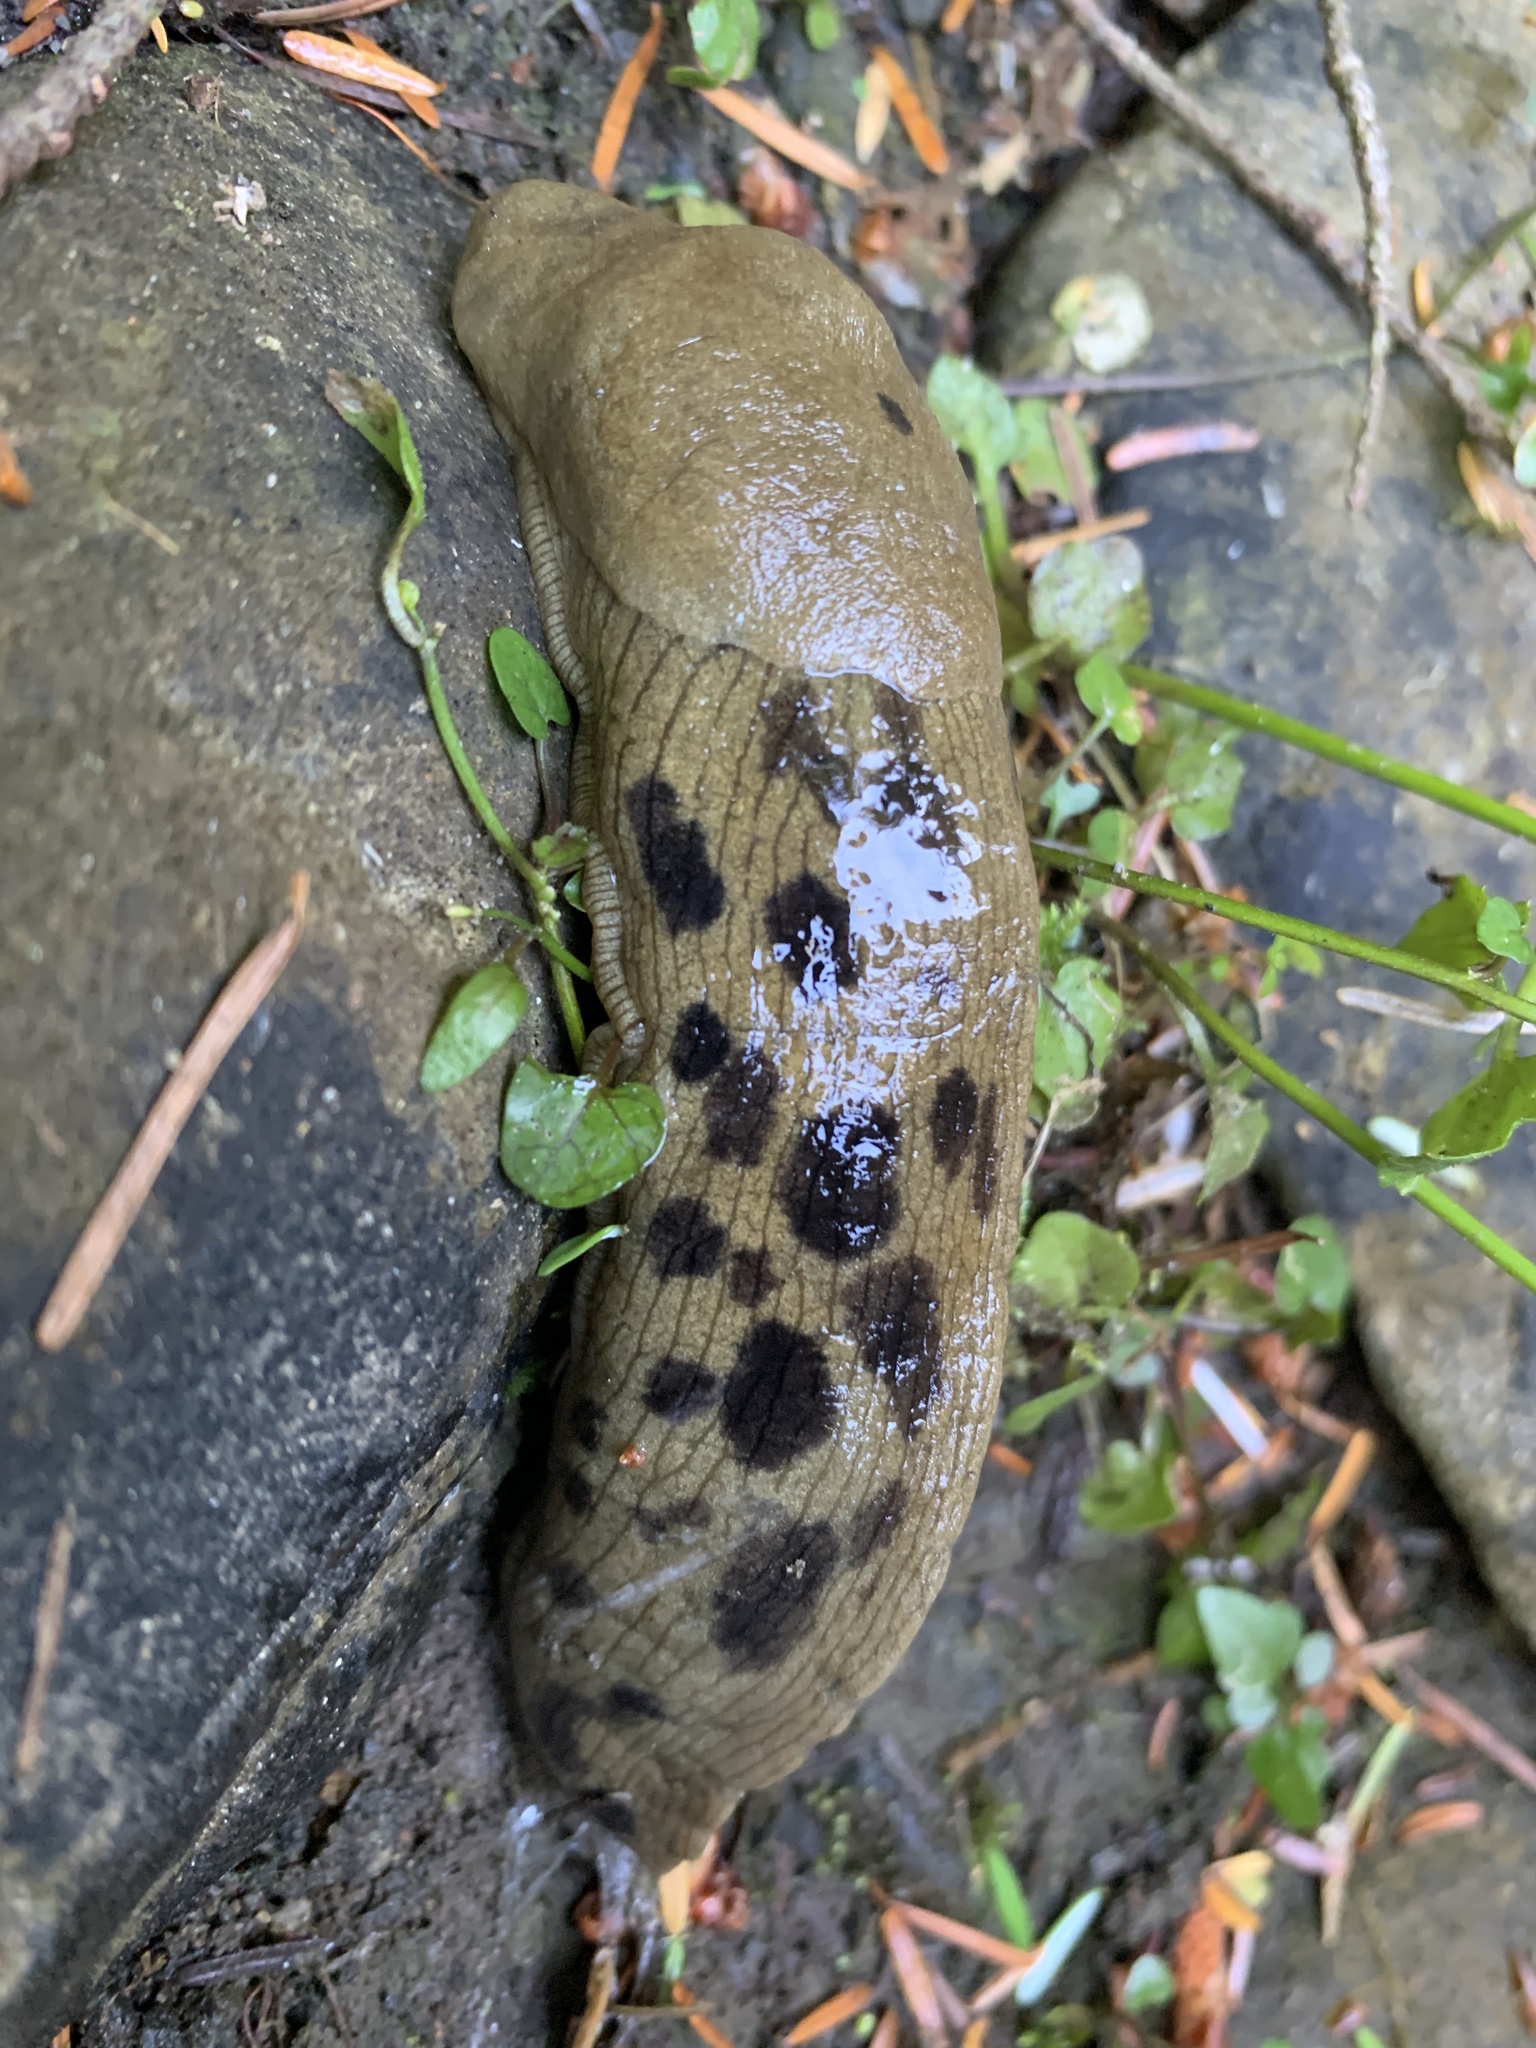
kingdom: Animalia
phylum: Mollusca
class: Gastropoda
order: Stylommatophora
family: Ariolimacidae
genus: Ariolimax
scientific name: Ariolimax columbianus
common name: Pacific banana slug
